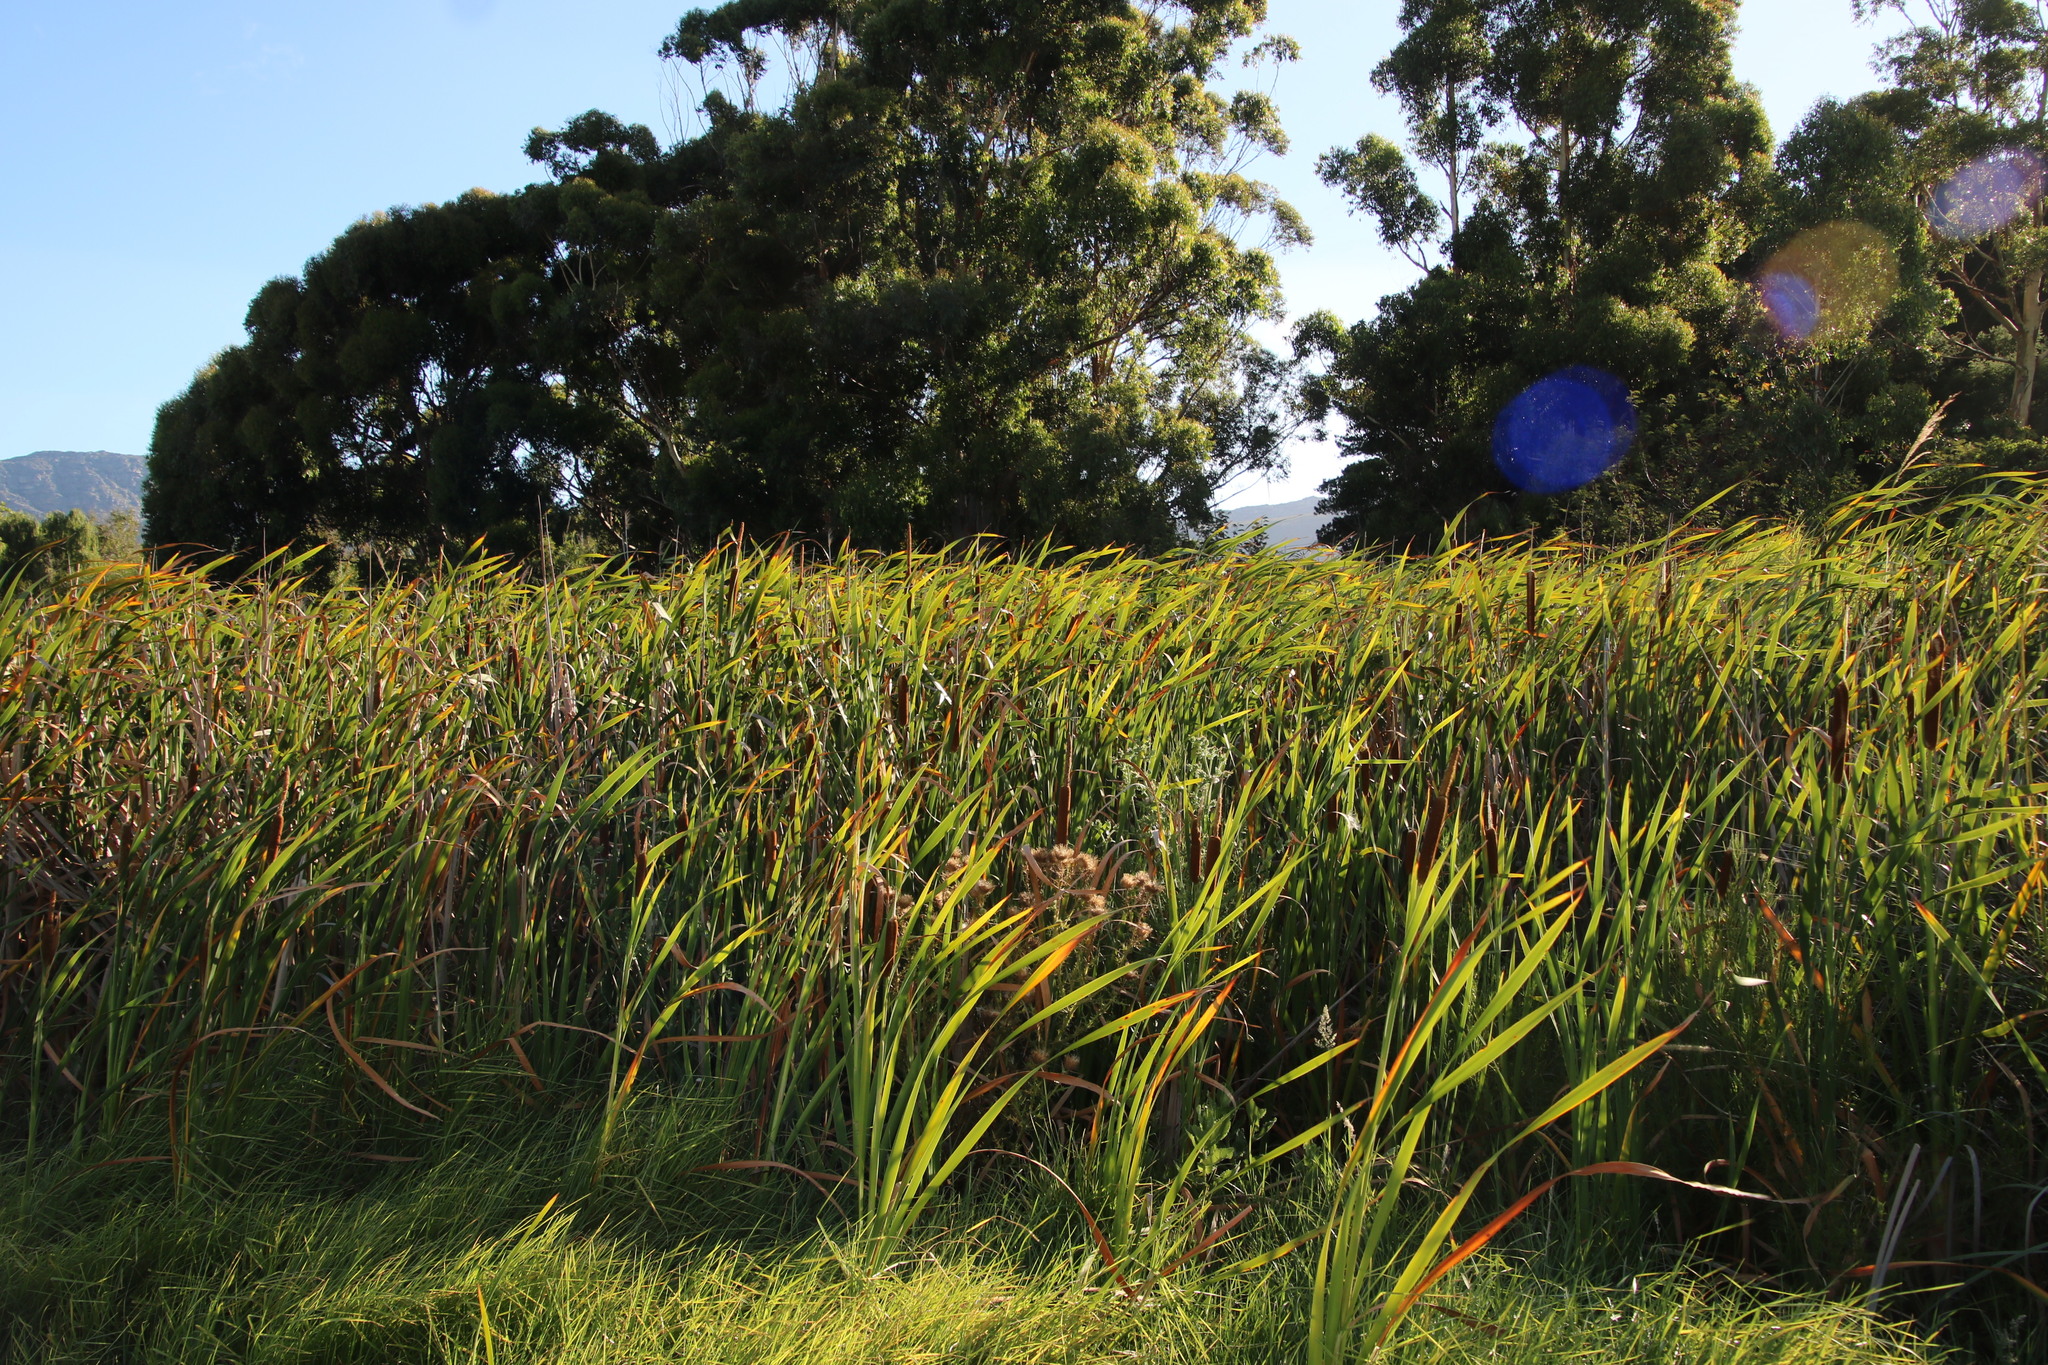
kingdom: Plantae
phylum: Tracheophyta
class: Liliopsida
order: Poales
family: Typhaceae
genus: Typha
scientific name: Typha capensis
